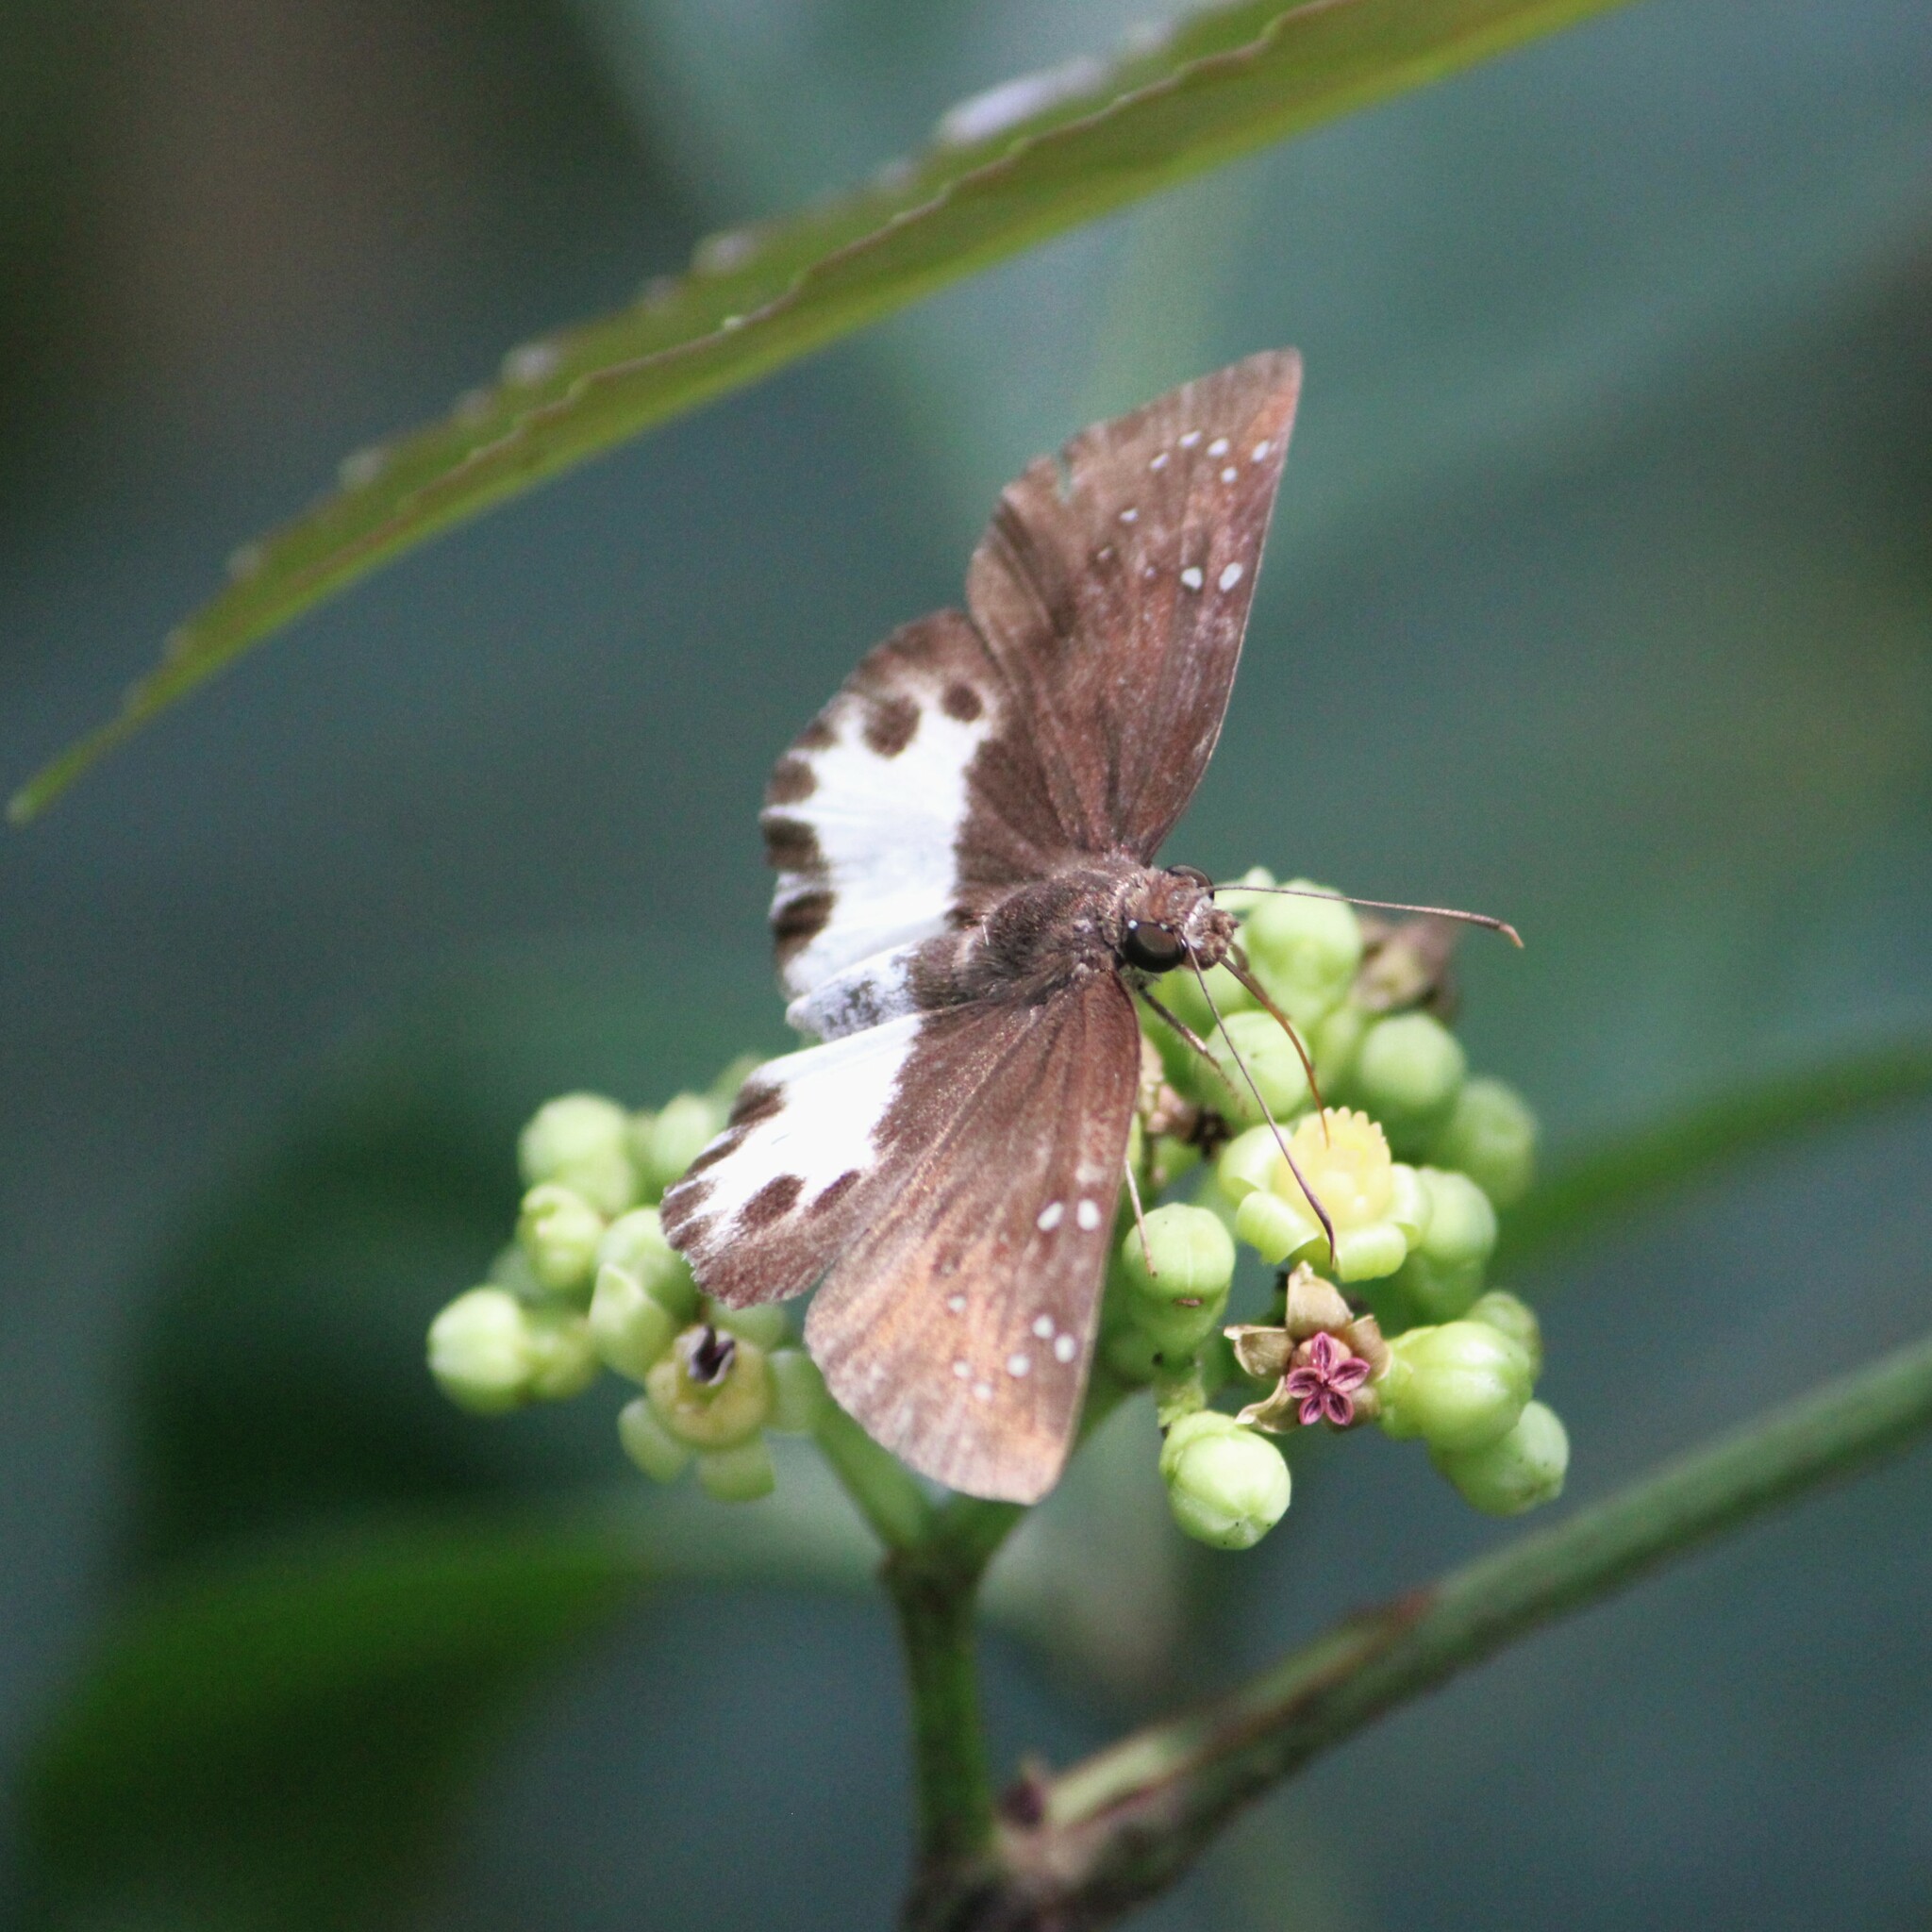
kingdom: Animalia
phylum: Arthropoda
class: Insecta
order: Lepidoptera
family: Hesperiidae
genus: Tagiades
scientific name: Tagiades litigiosa
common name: Water snow flat
